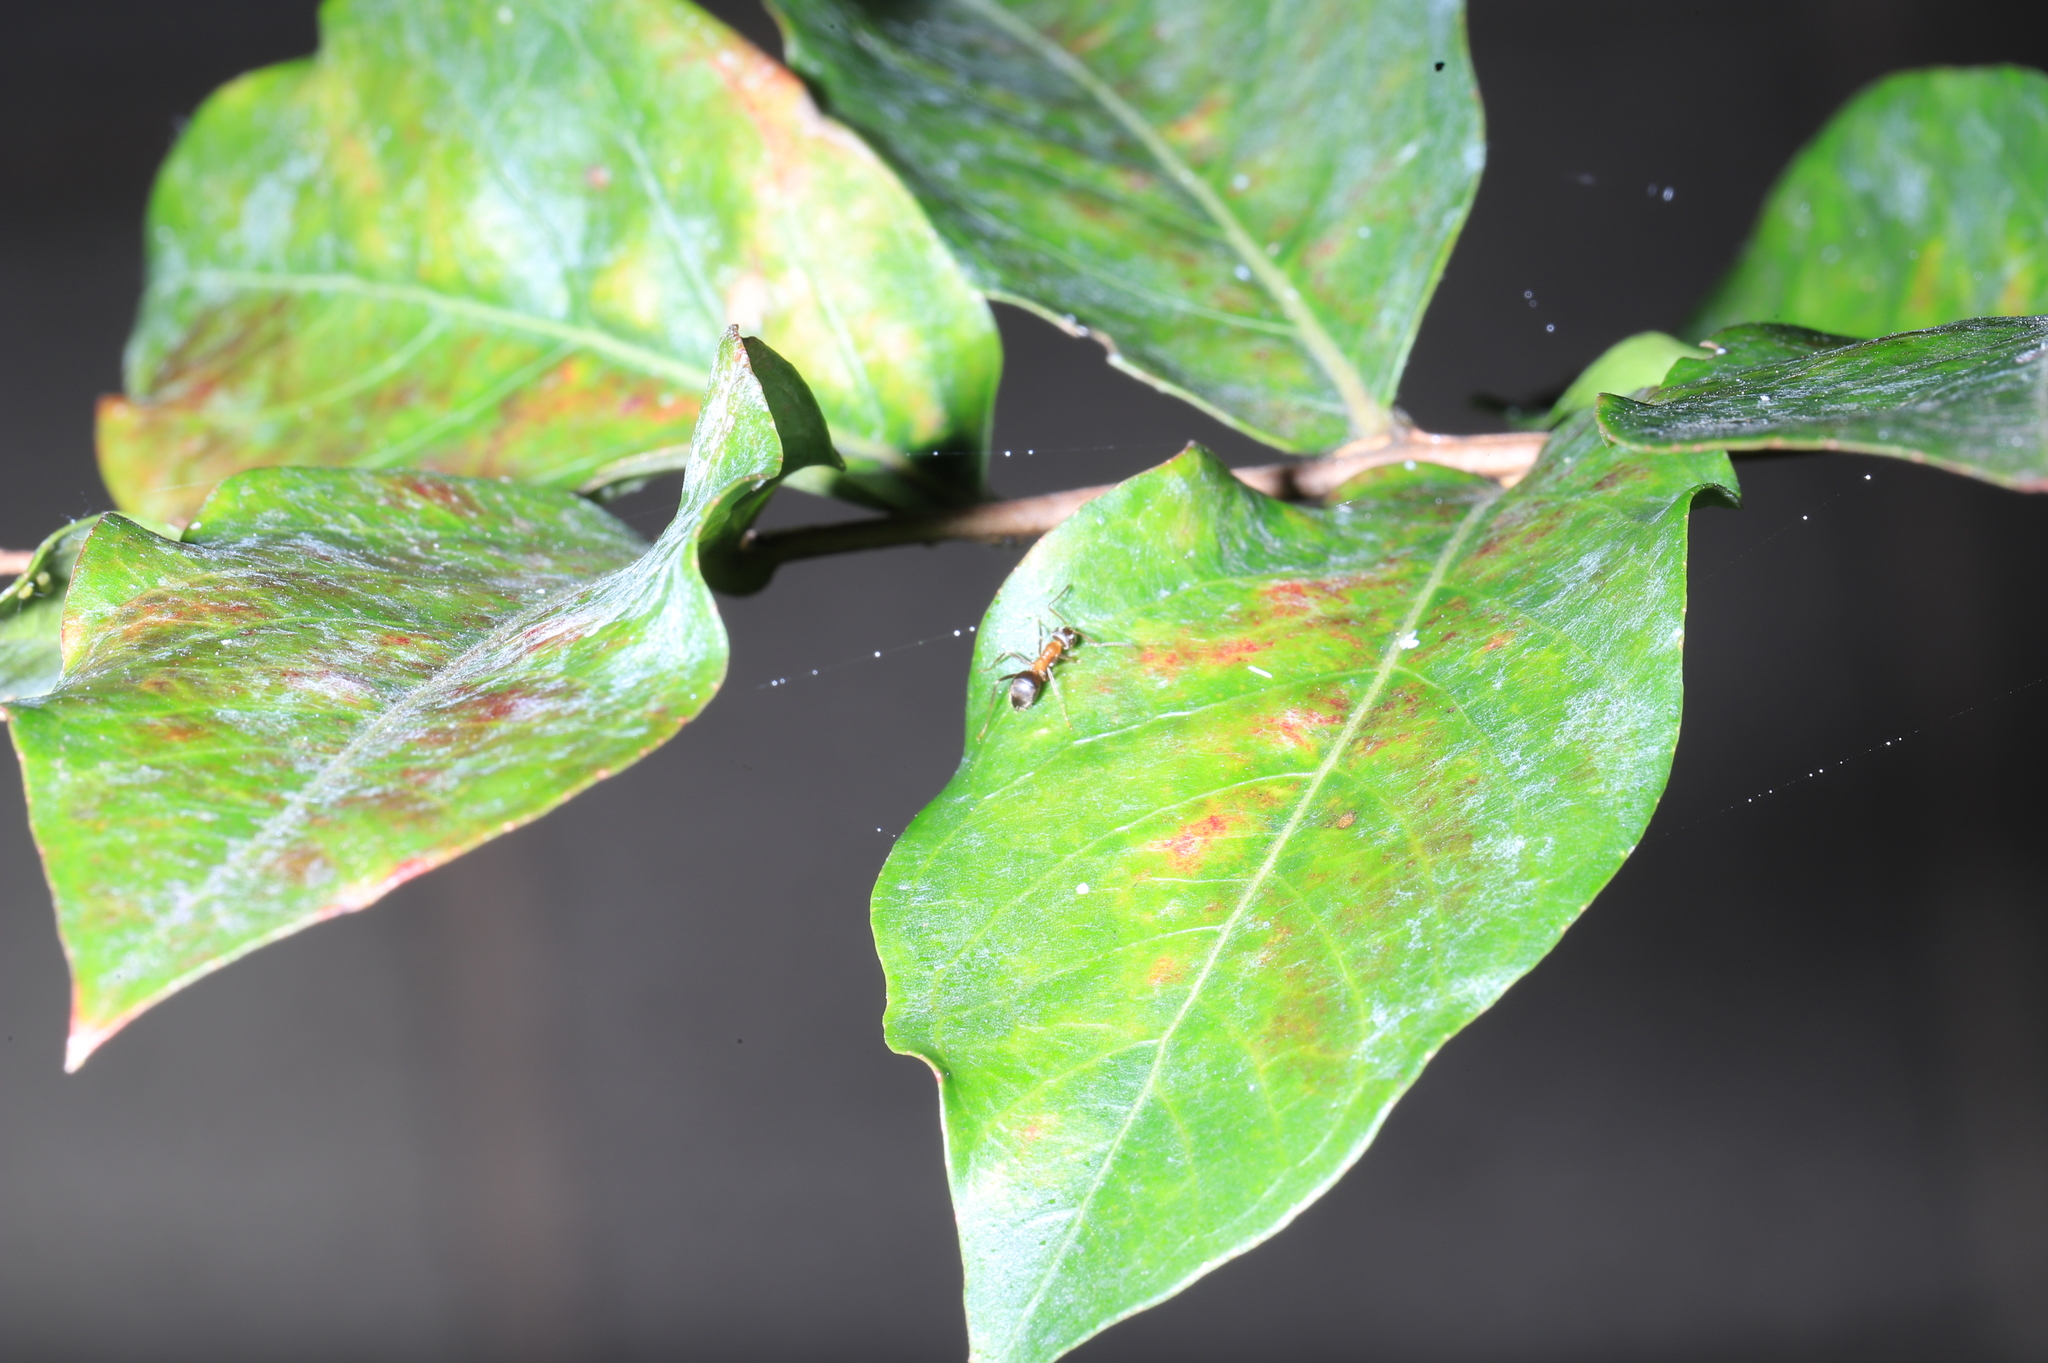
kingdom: Animalia
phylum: Arthropoda
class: Insecta
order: Hymenoptera
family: Formicidae
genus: Lasius
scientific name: Lasius emarginatus
